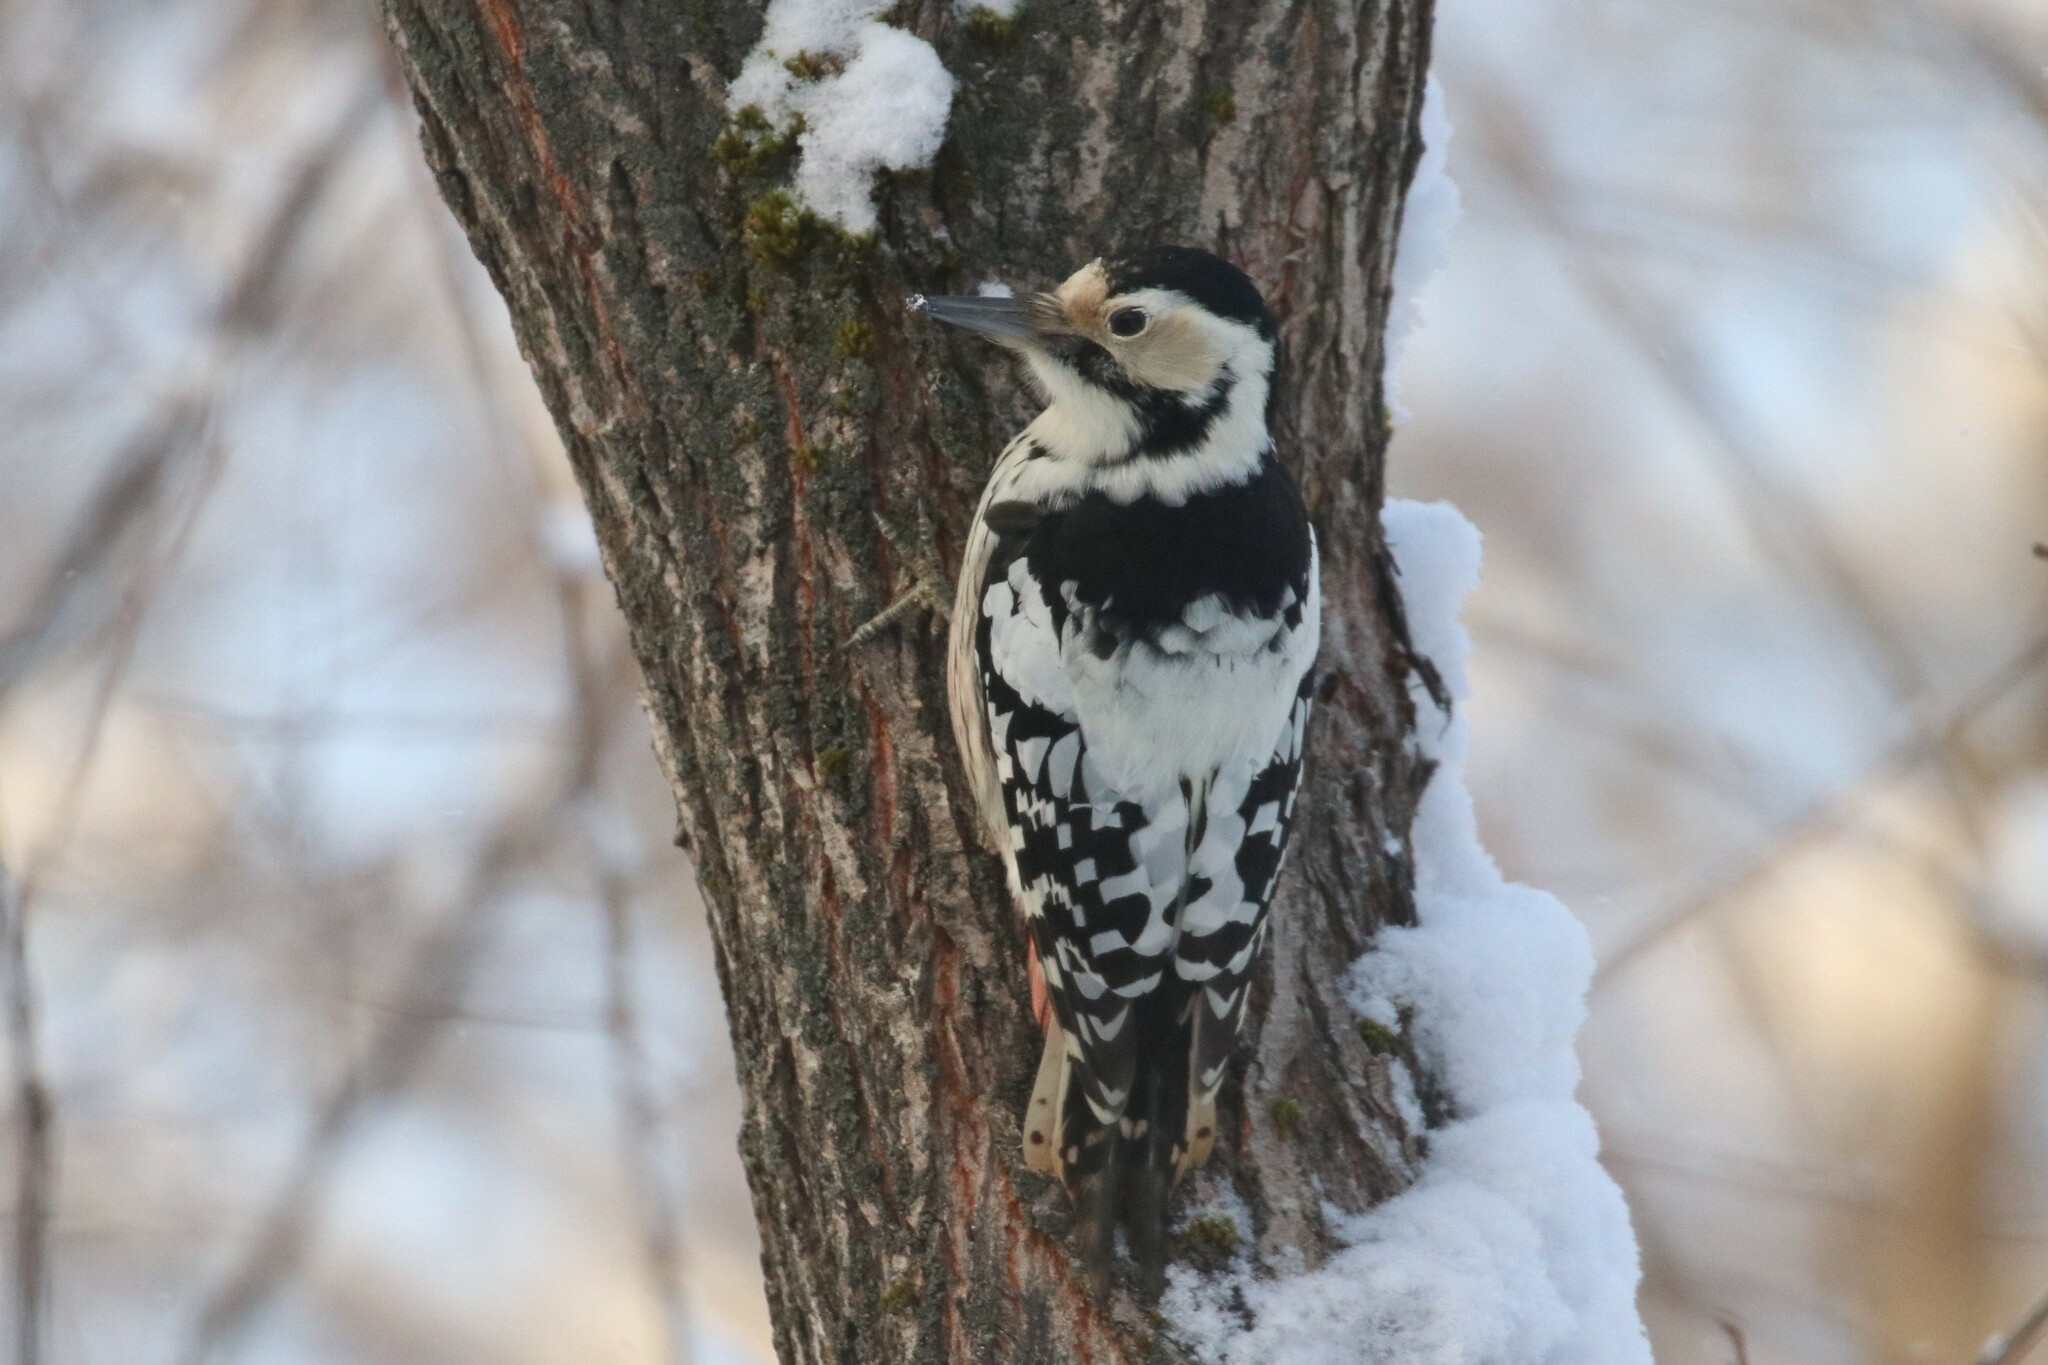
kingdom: Animalia
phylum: Chordata
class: Aves
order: Piciformes
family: Picidae
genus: Dendrocopos
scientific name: Dendrocopos leucotos
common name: White-backed woodpecker
